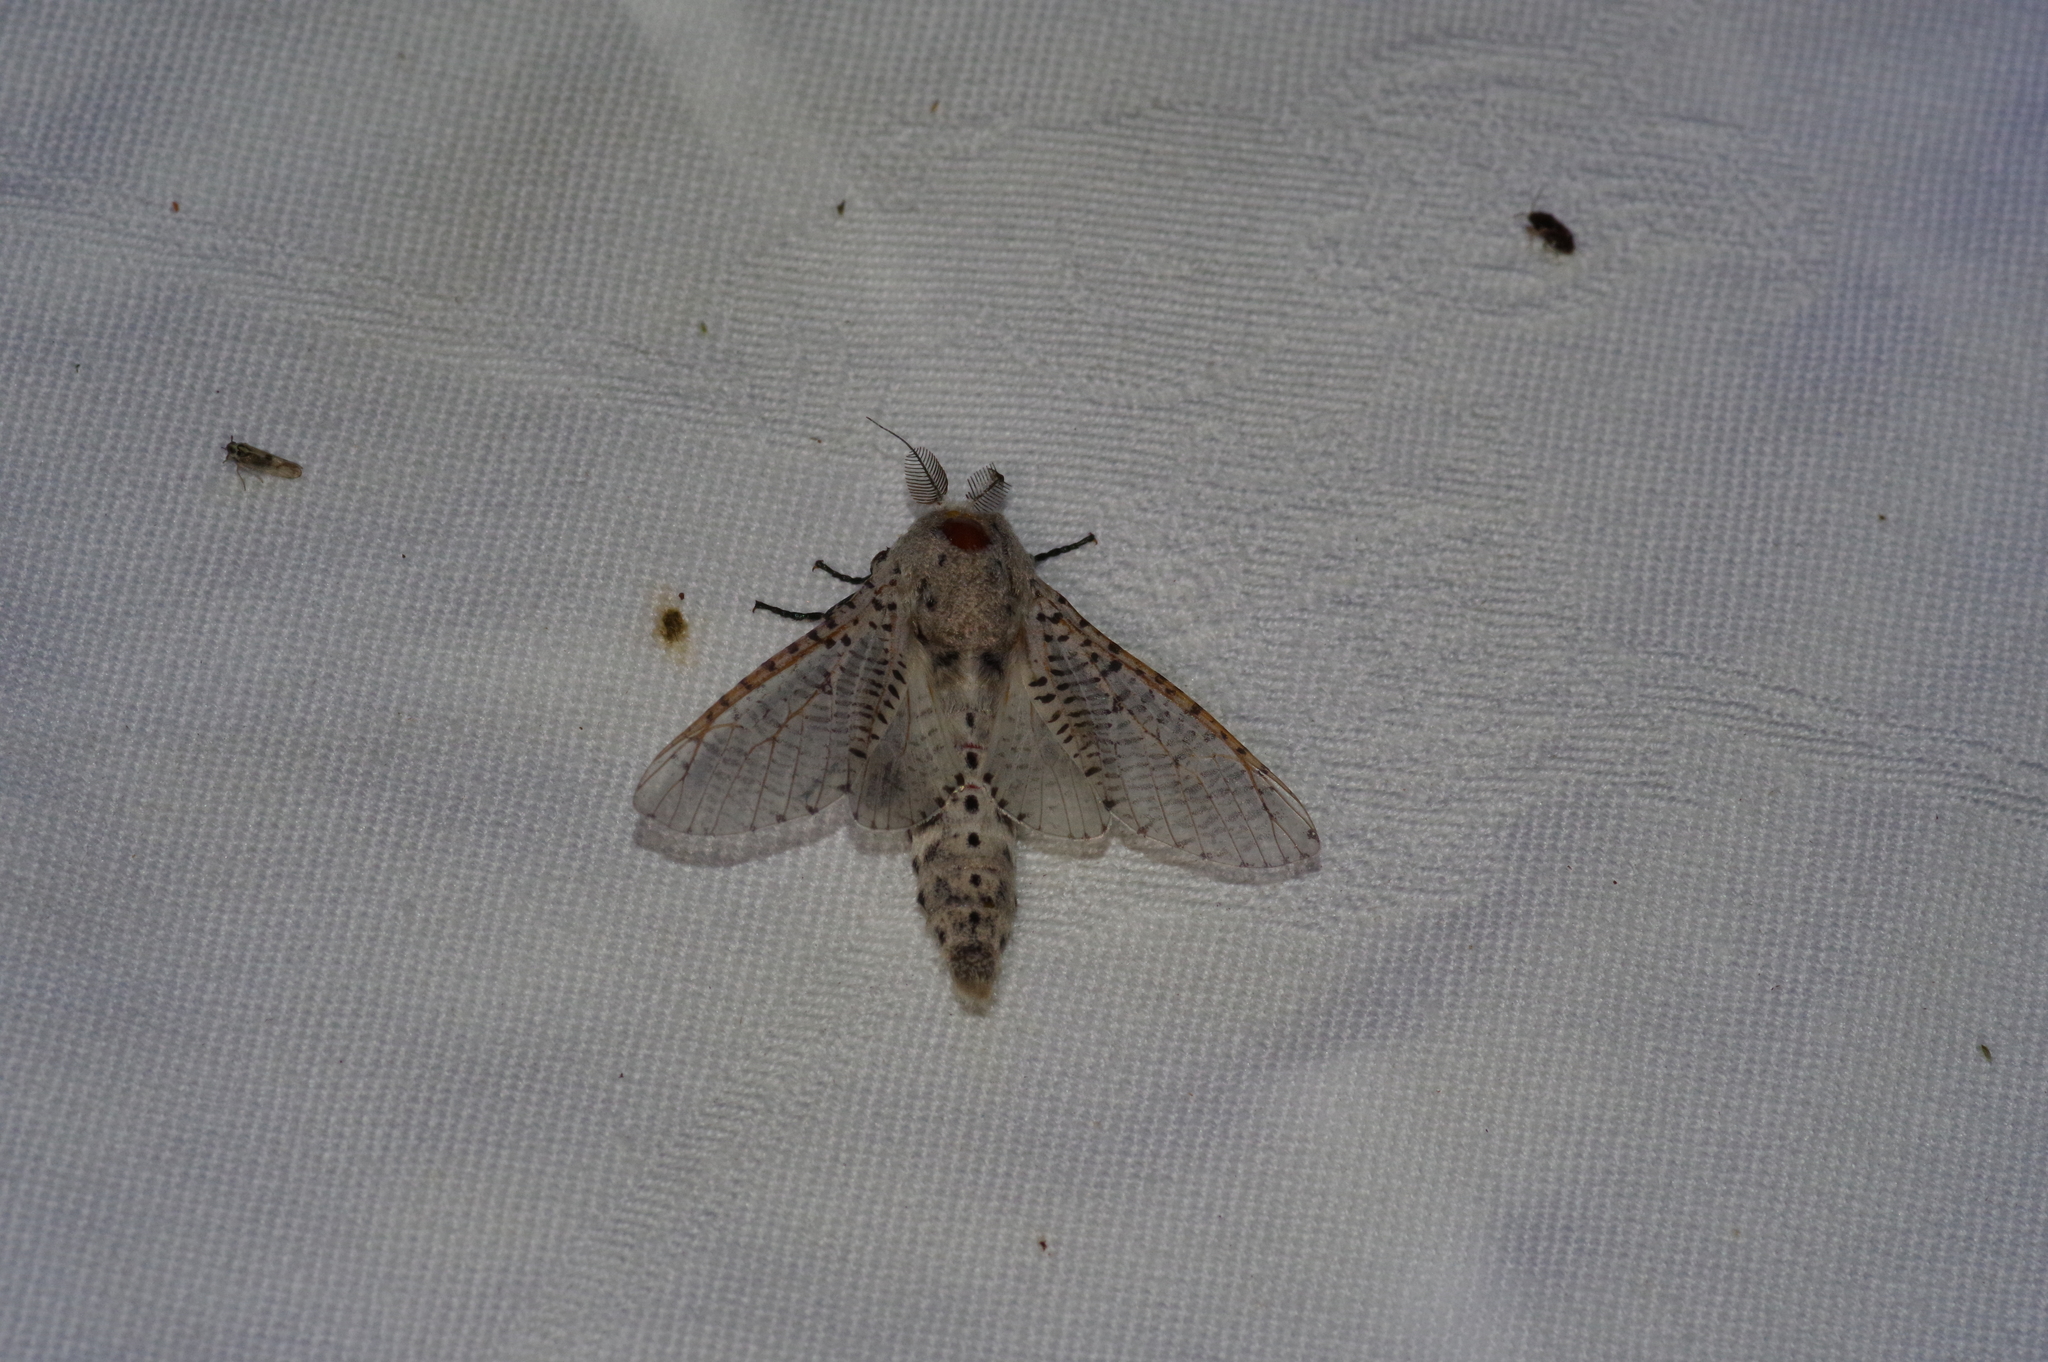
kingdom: Animalia
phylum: Arthropoda
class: Insecta
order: Lepidoptera
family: Cossidae
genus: Orientozeuzera
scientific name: Orientozeuzera caudata
